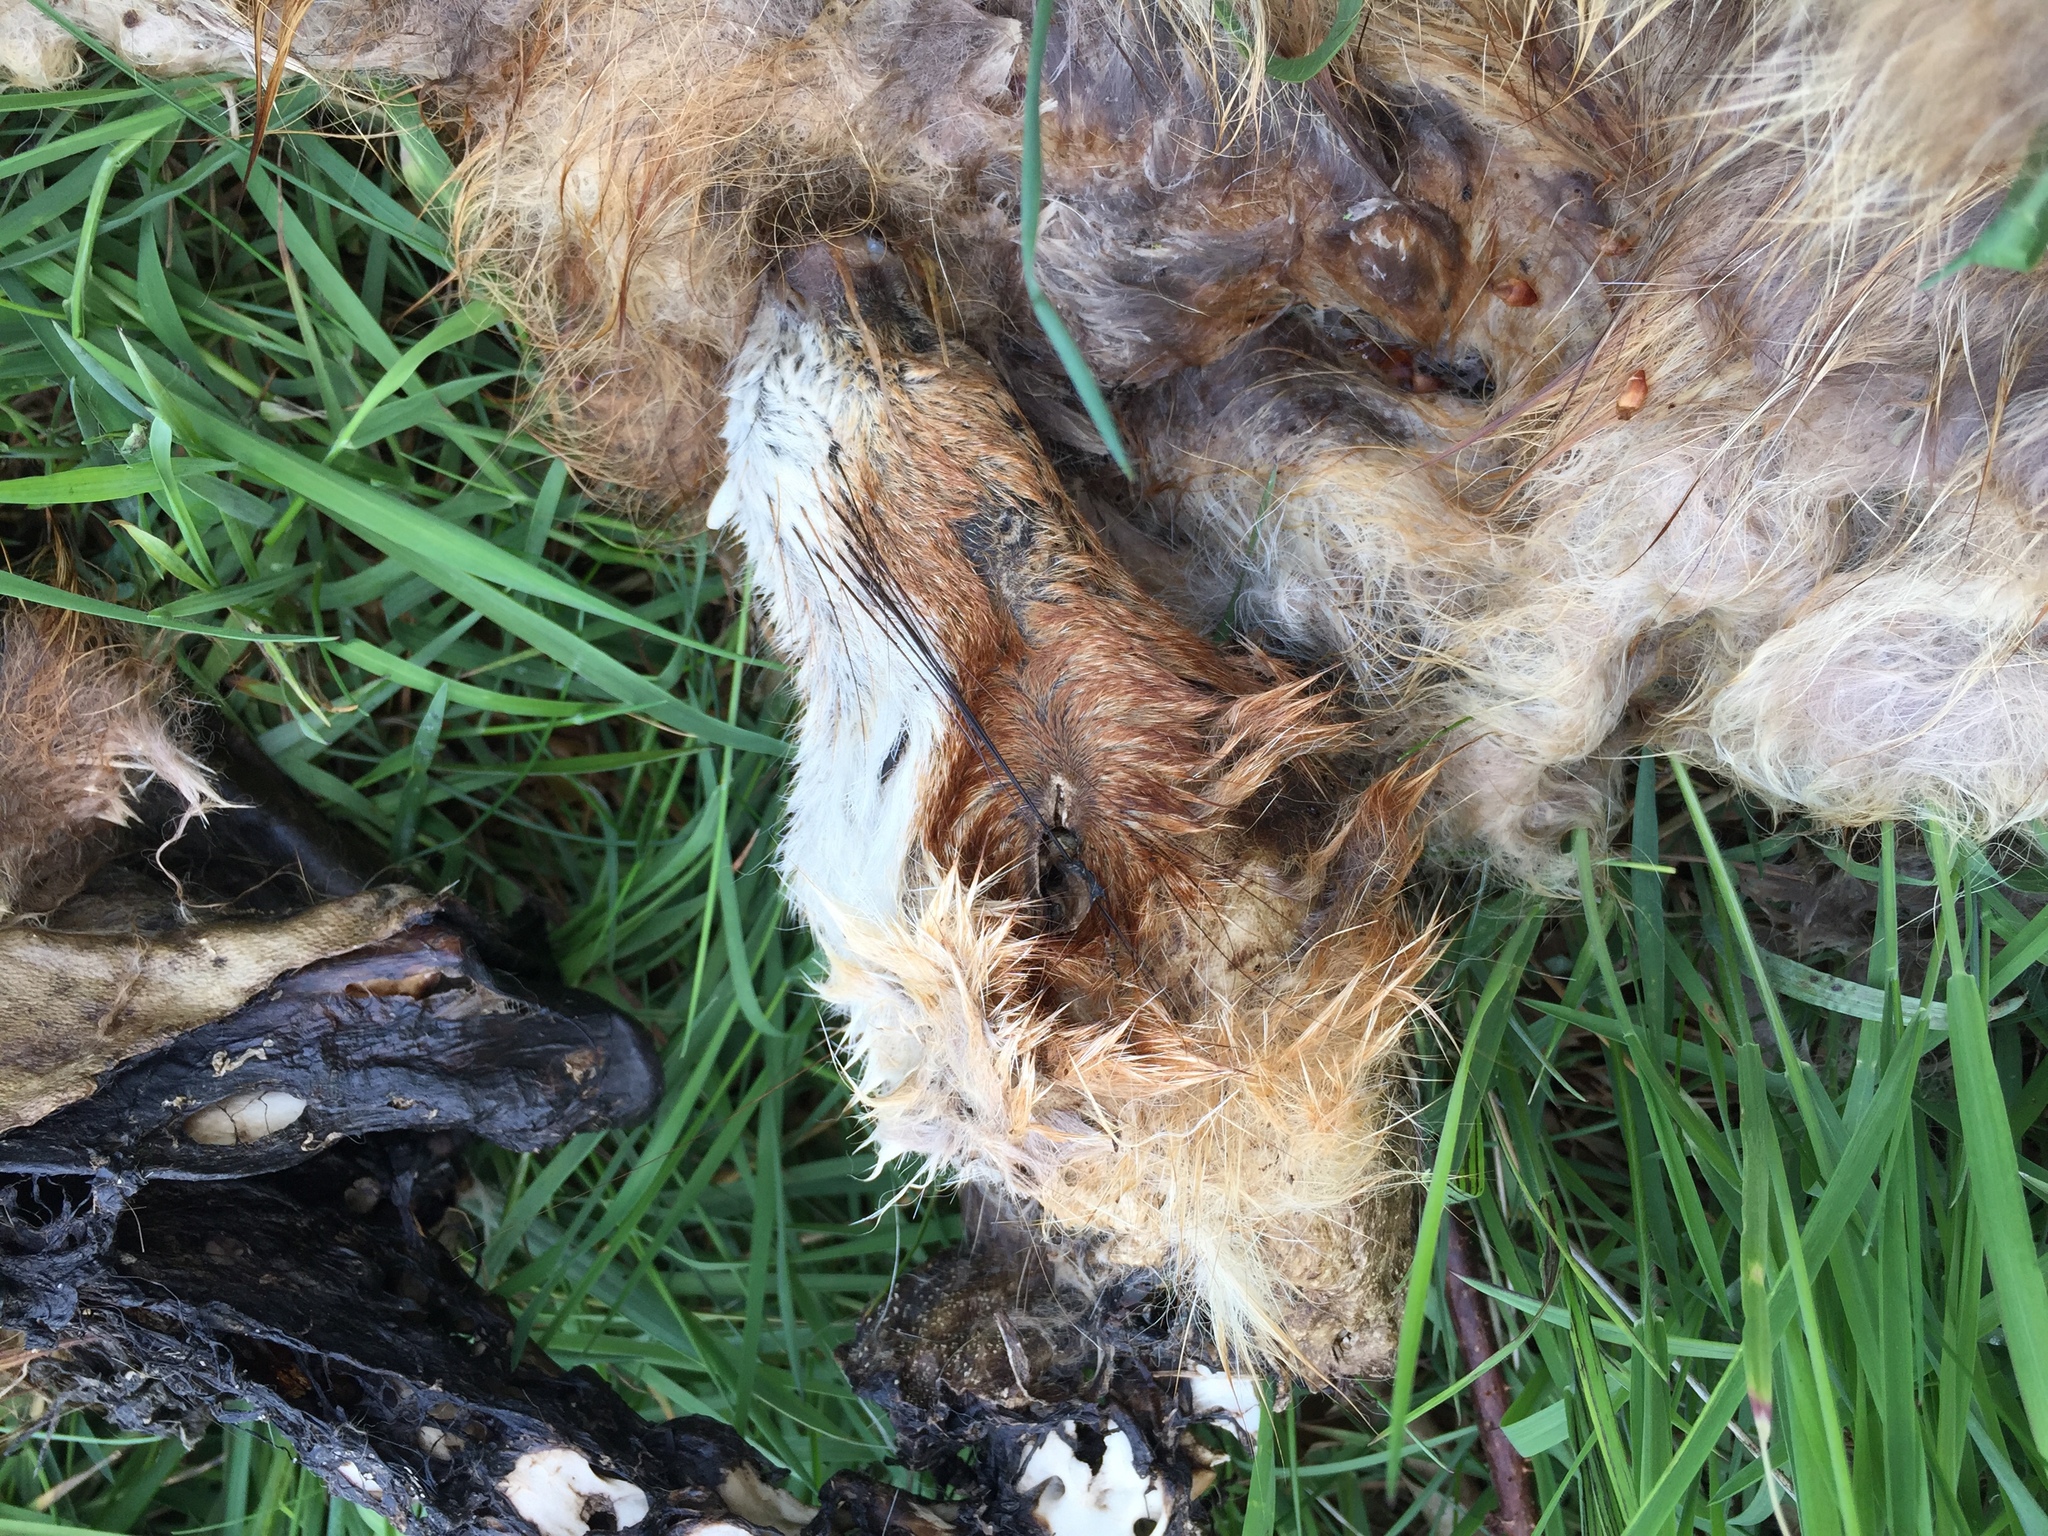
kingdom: Animalia
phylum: Chordata
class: Mammalia
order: Carnivora
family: Canidae
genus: Vulpes
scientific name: Vulpes vulpes
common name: Red fox
